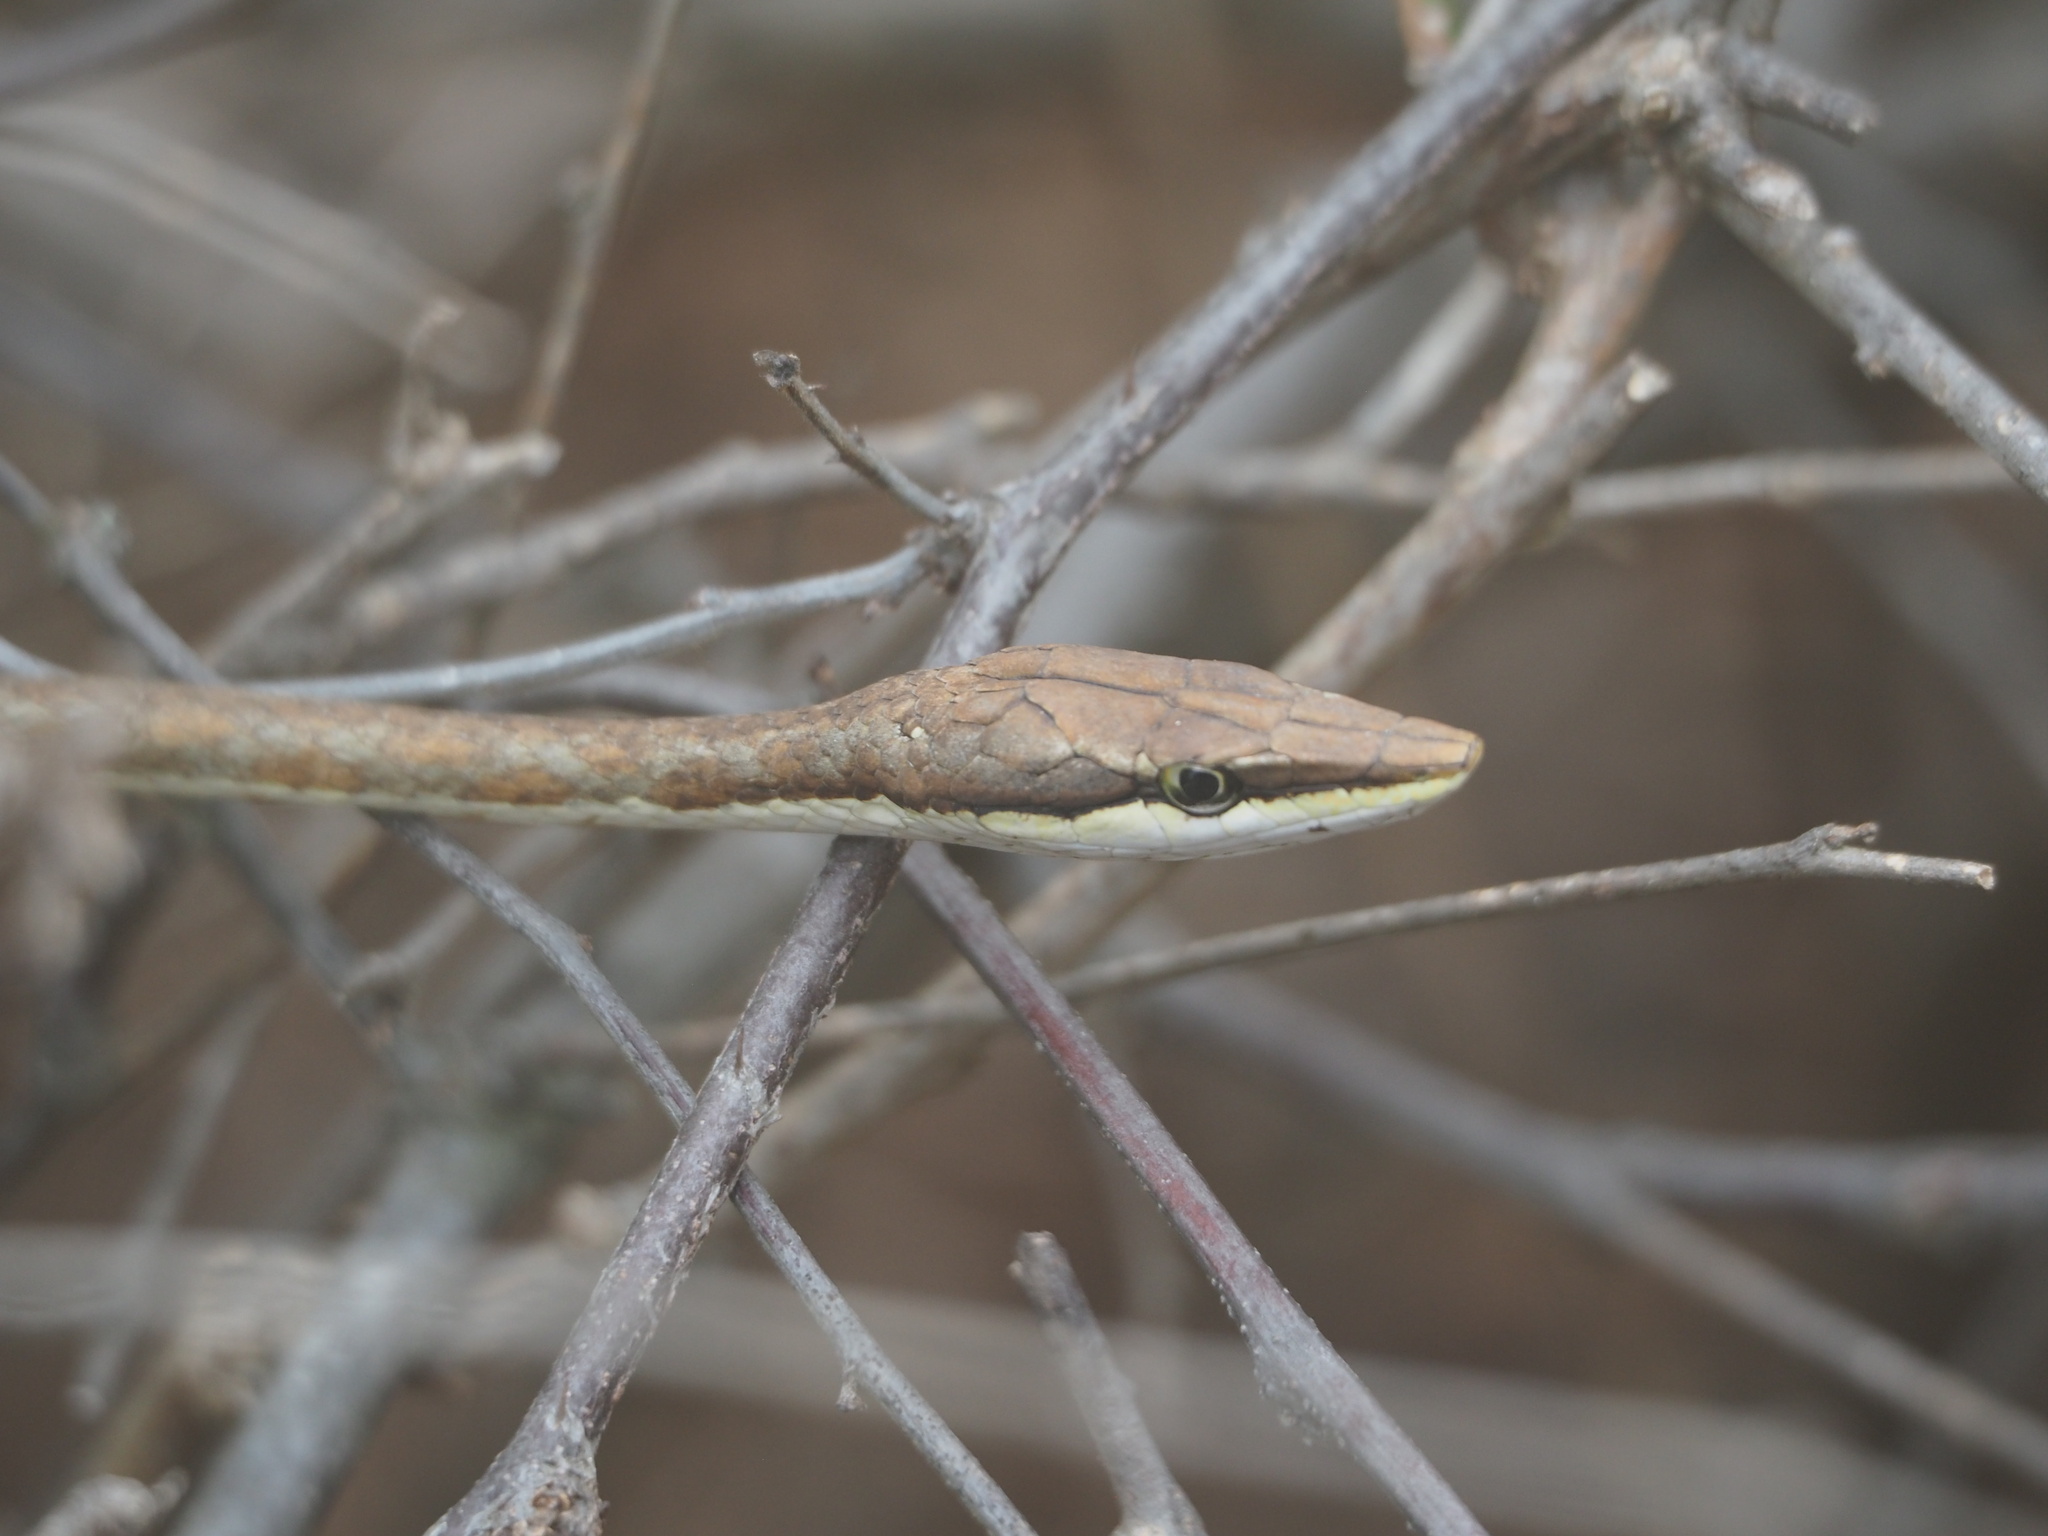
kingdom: Animalia
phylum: Chordata
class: Squamata
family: Colubridae
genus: Oxybelis
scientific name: Oxybelis transandinus
